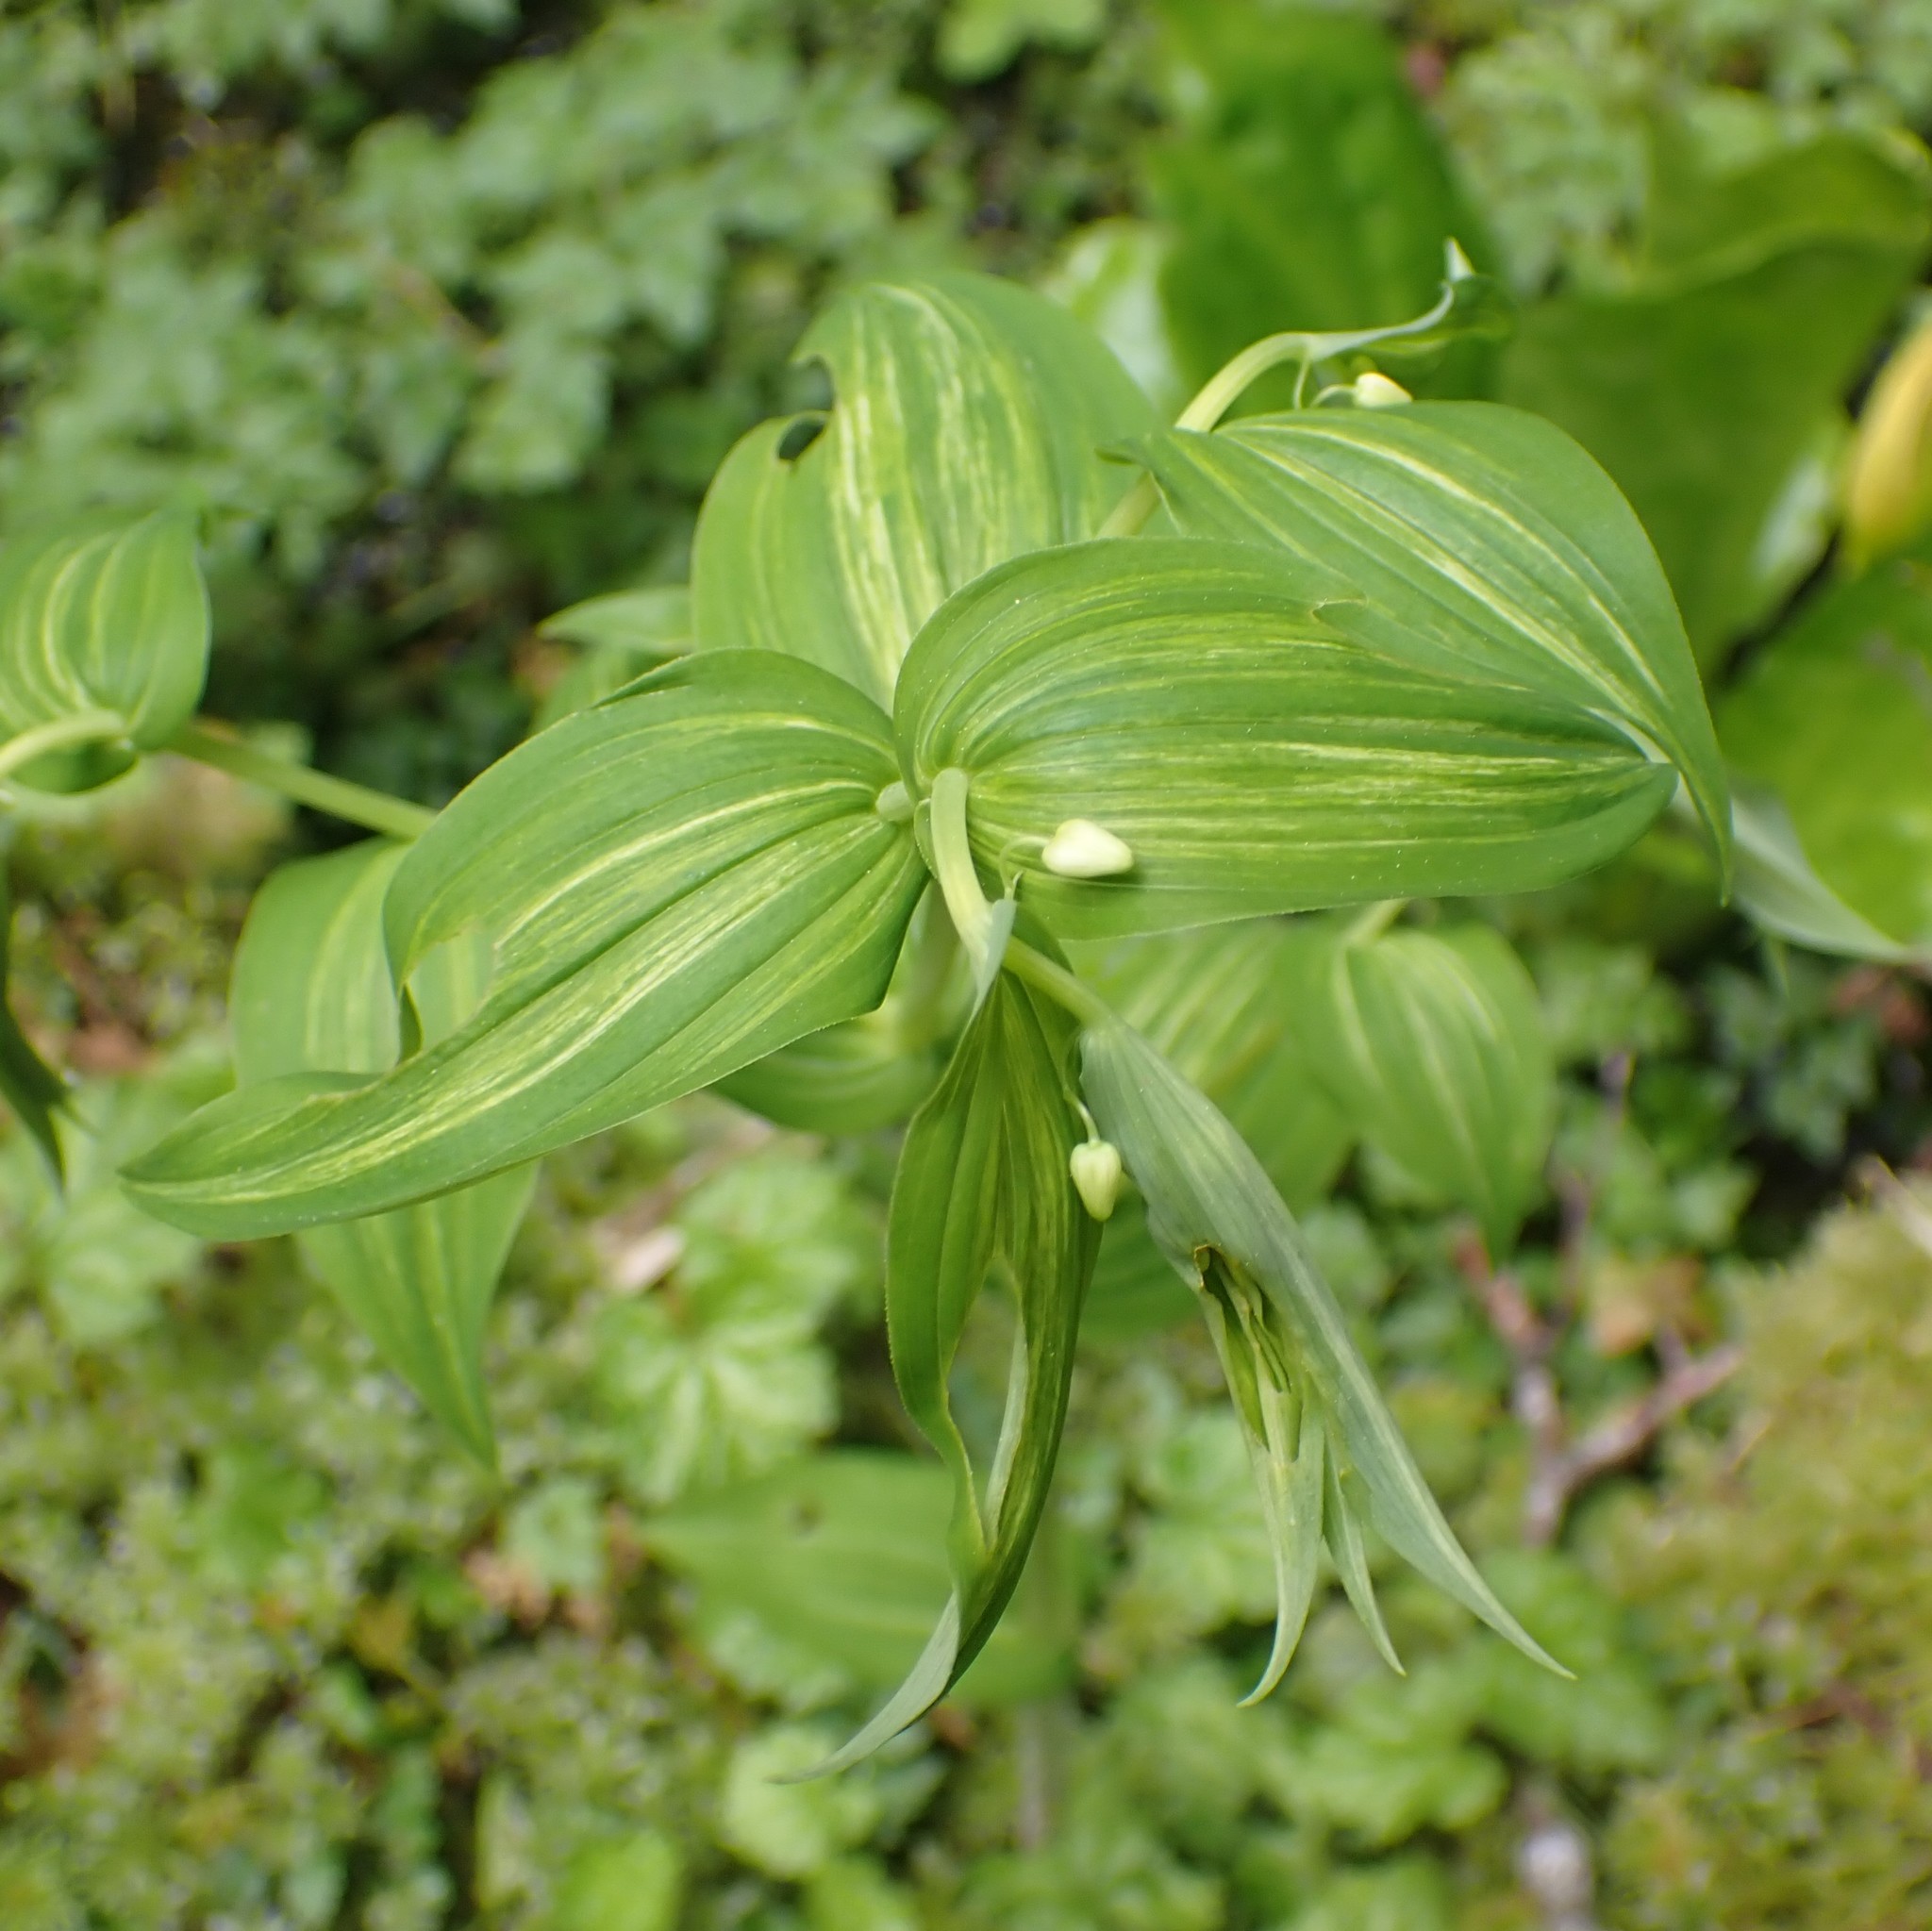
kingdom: Plantae
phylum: Tracheophyta
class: Liliopsida
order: Liliales
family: Liliaceae
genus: Streptopus
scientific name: Streptopus amplexifolius
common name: Clasp twisted stalk
